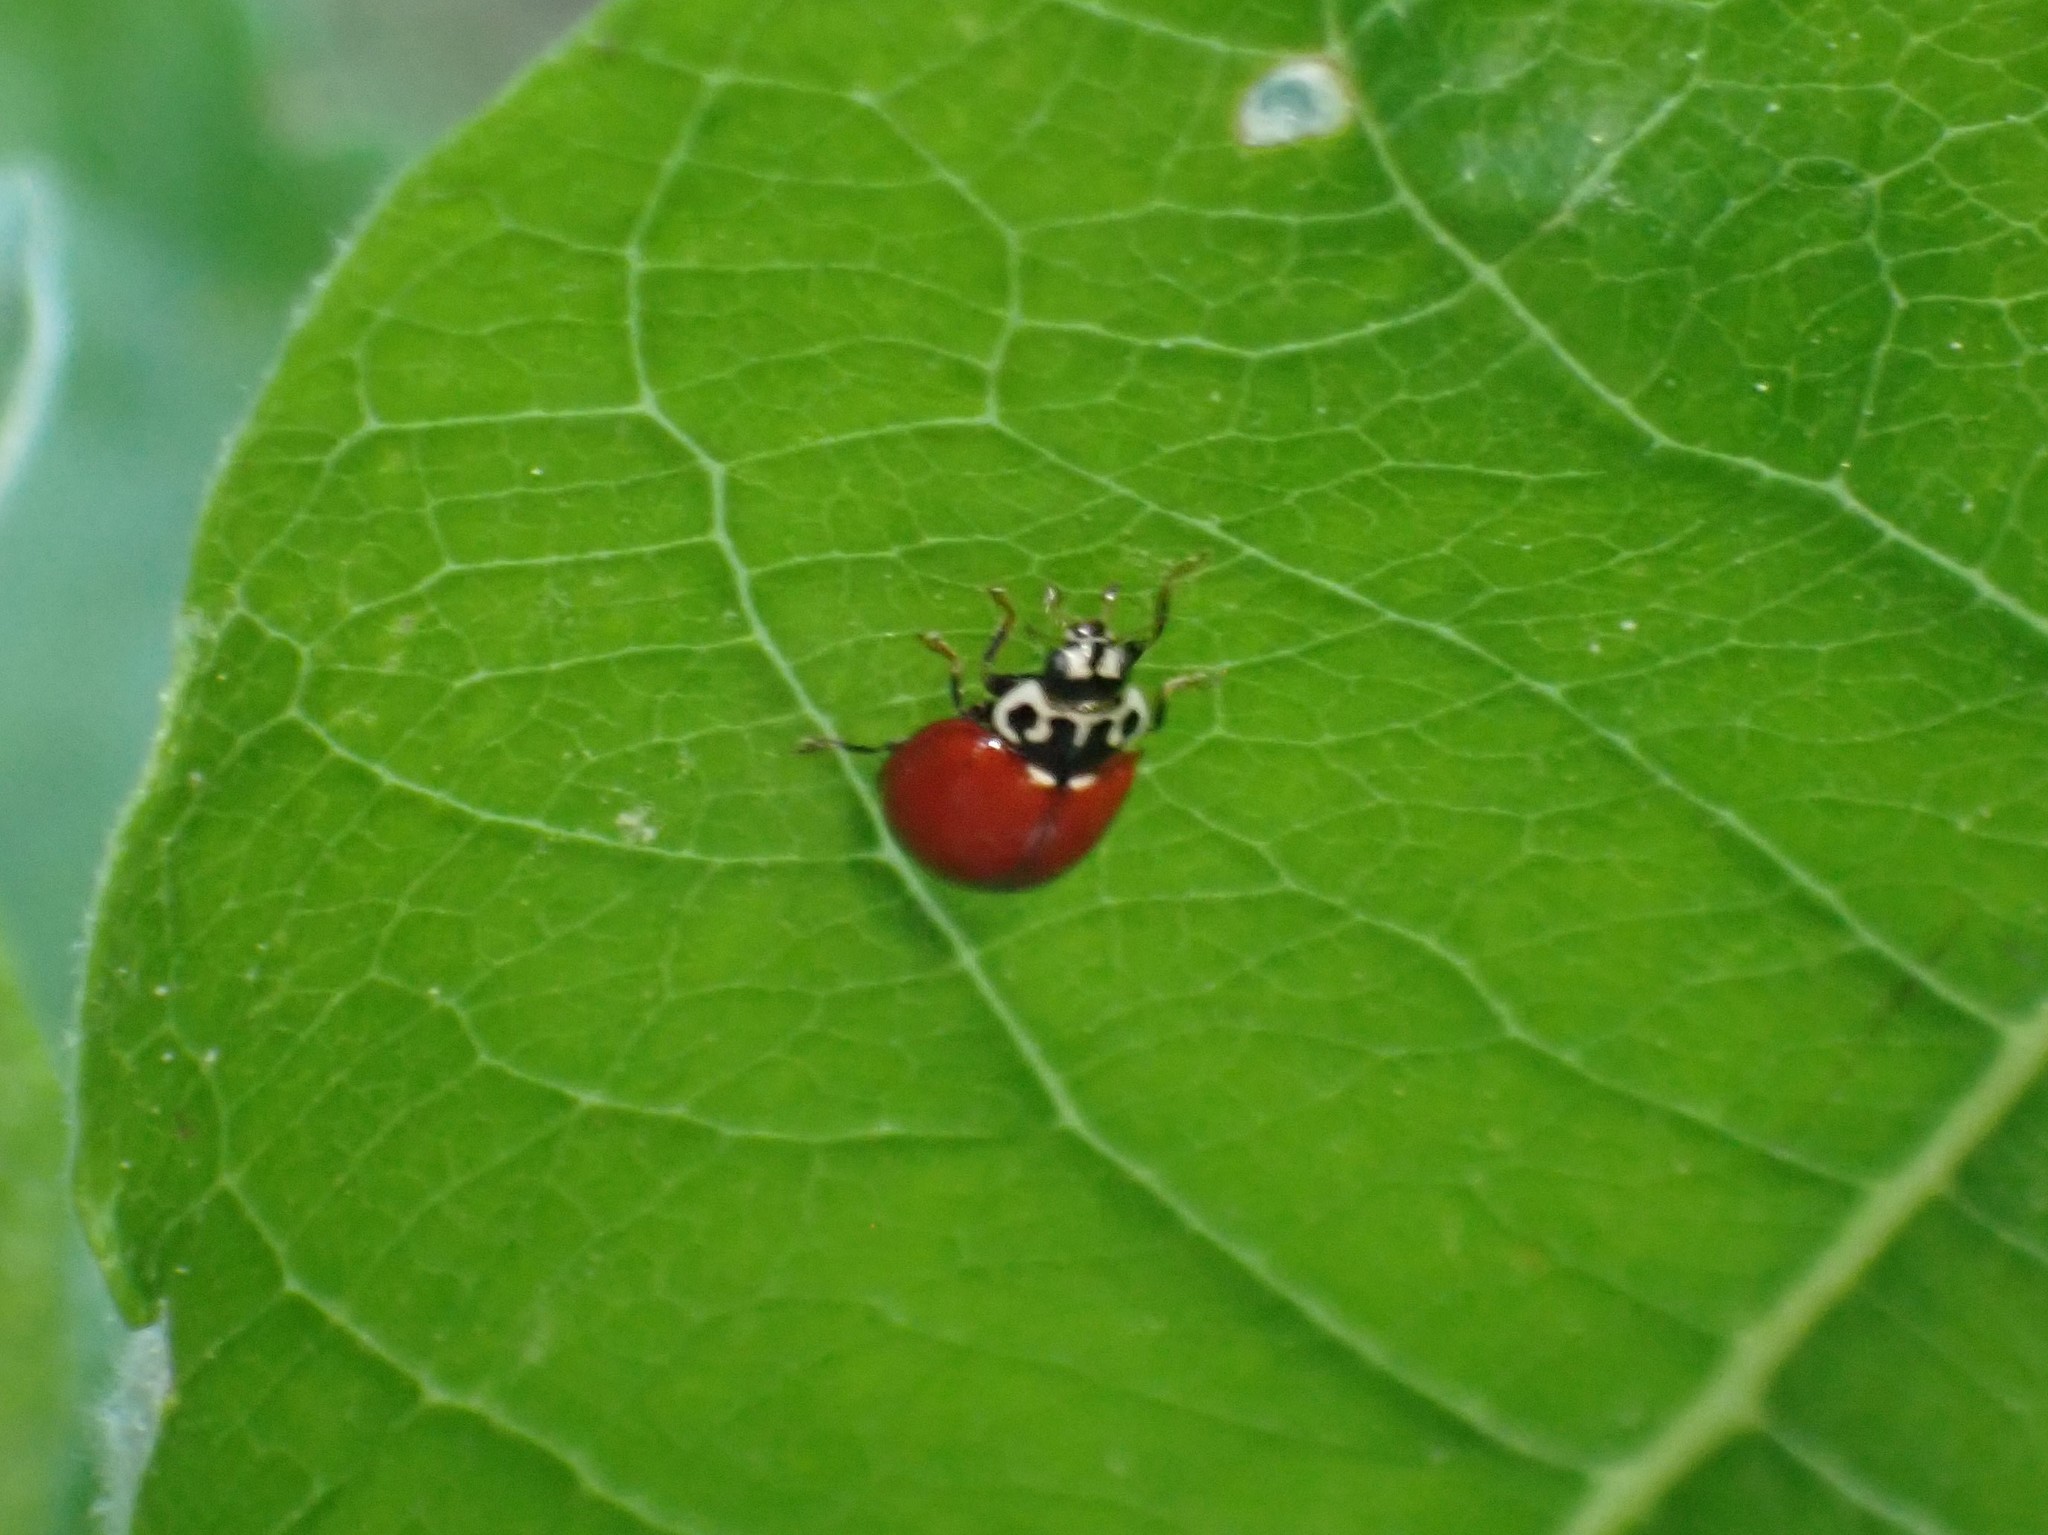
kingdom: Animalia
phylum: Arthropoda
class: Insecta
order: Coleoptera
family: Coccinellidae
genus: Cycloneda
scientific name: Cycloneda polita
